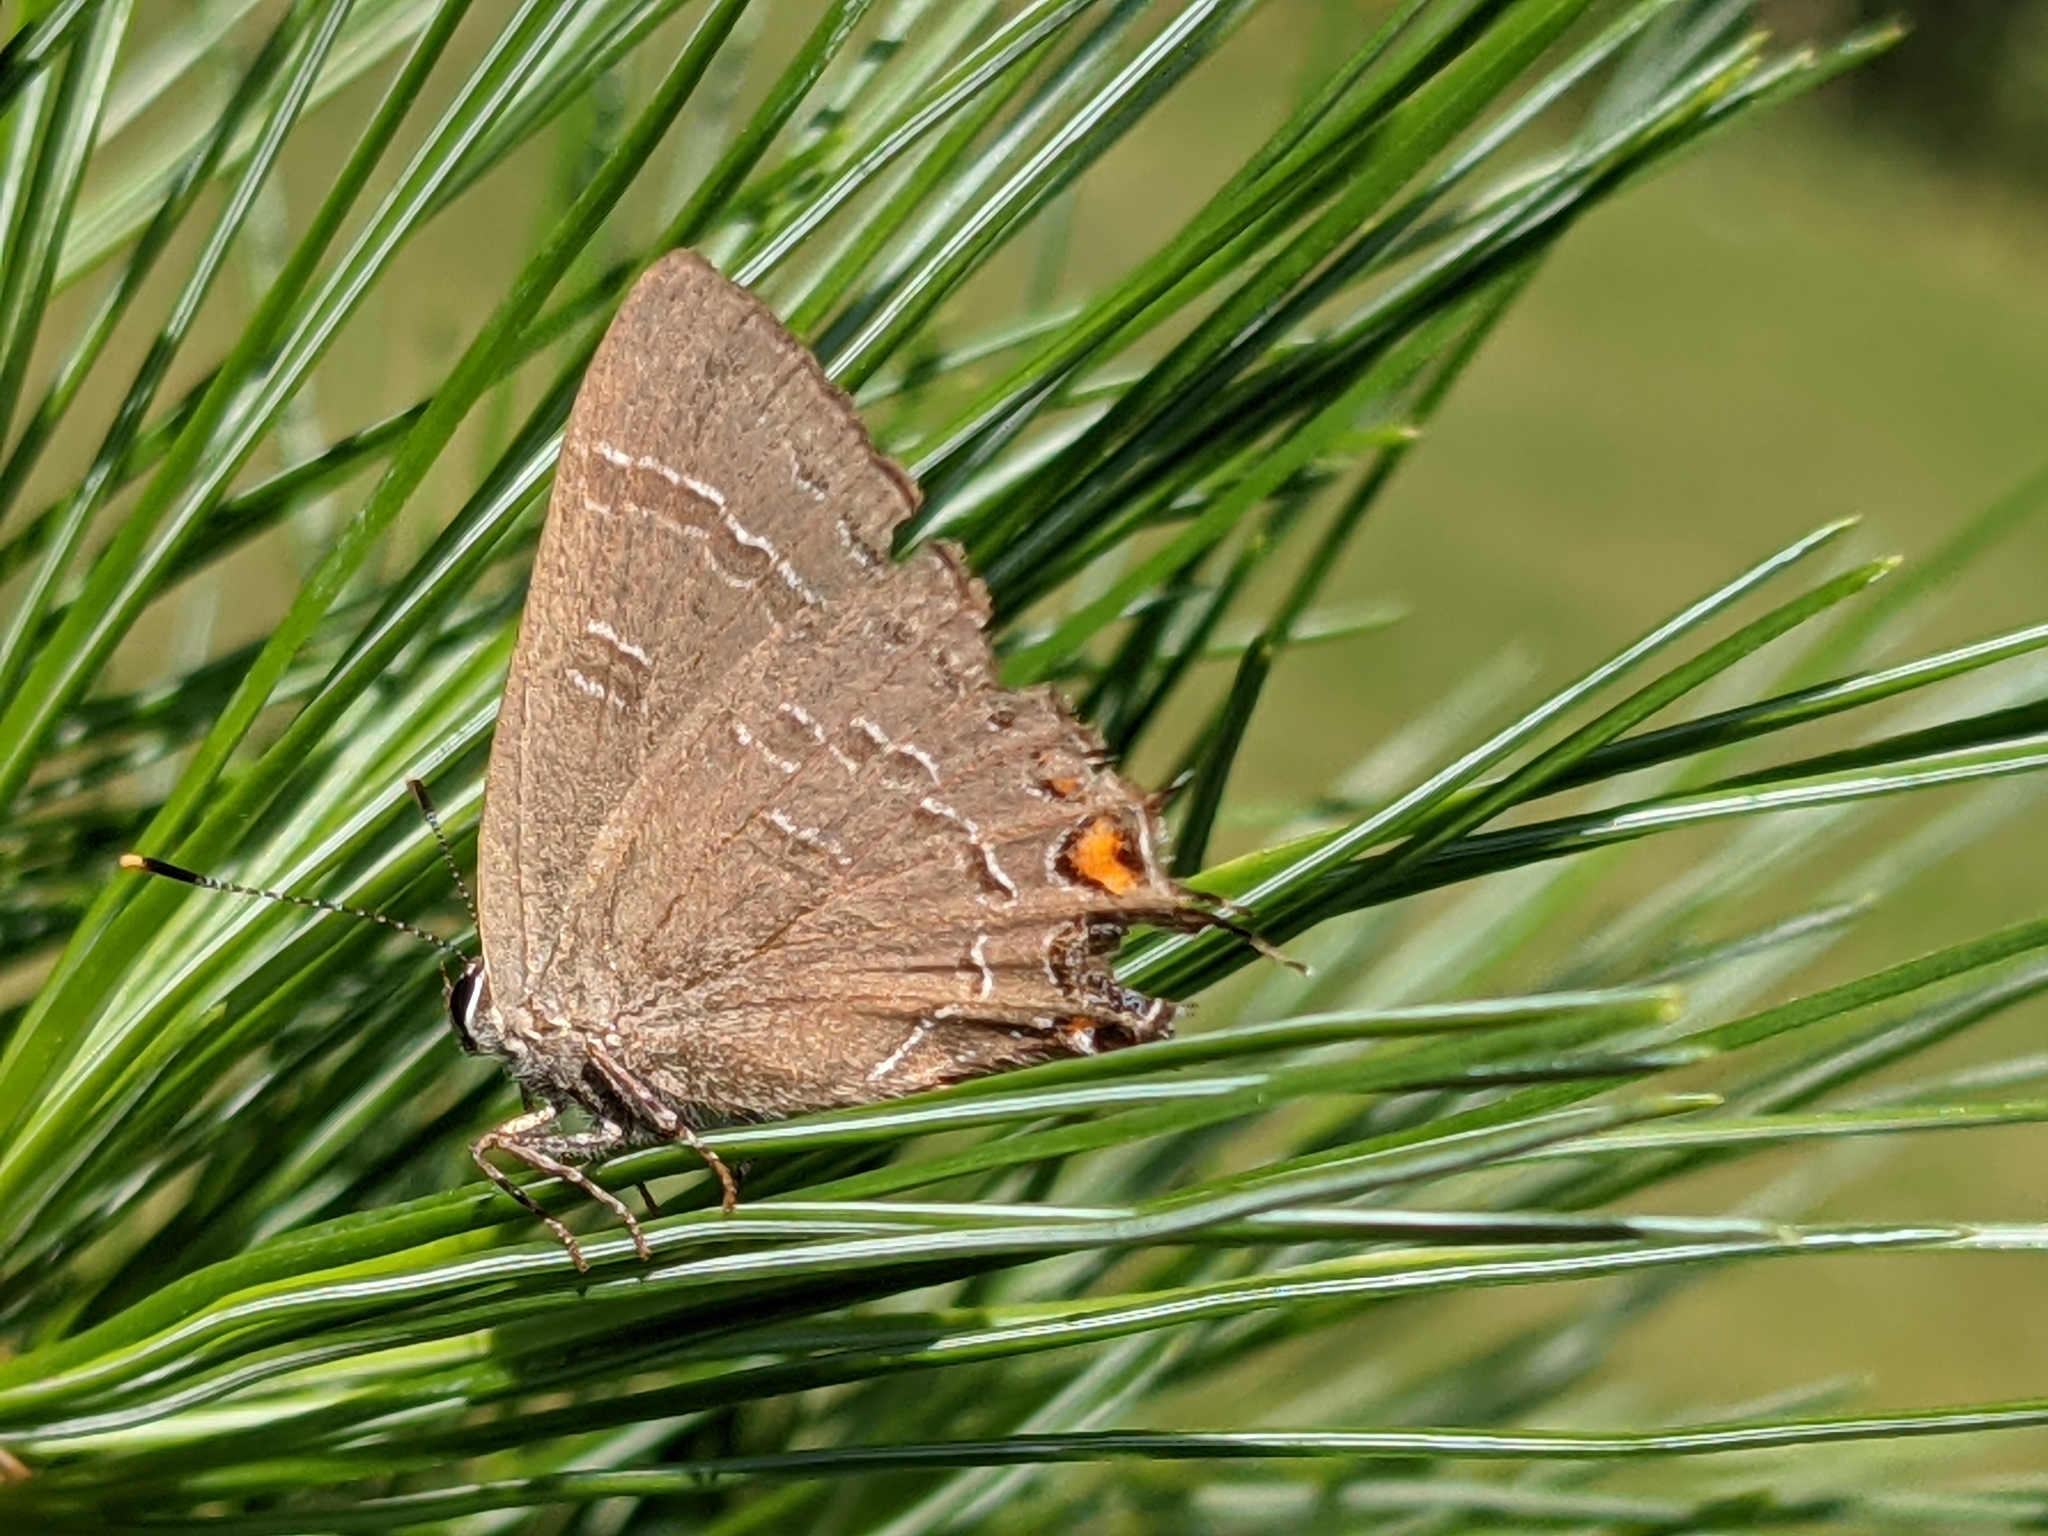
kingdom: Animalia
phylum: Arthropoda
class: Insecta
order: Lepidoptera
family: Lycaenidae
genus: Satyrium
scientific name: Satyrium calanus
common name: Banded hairstreak
